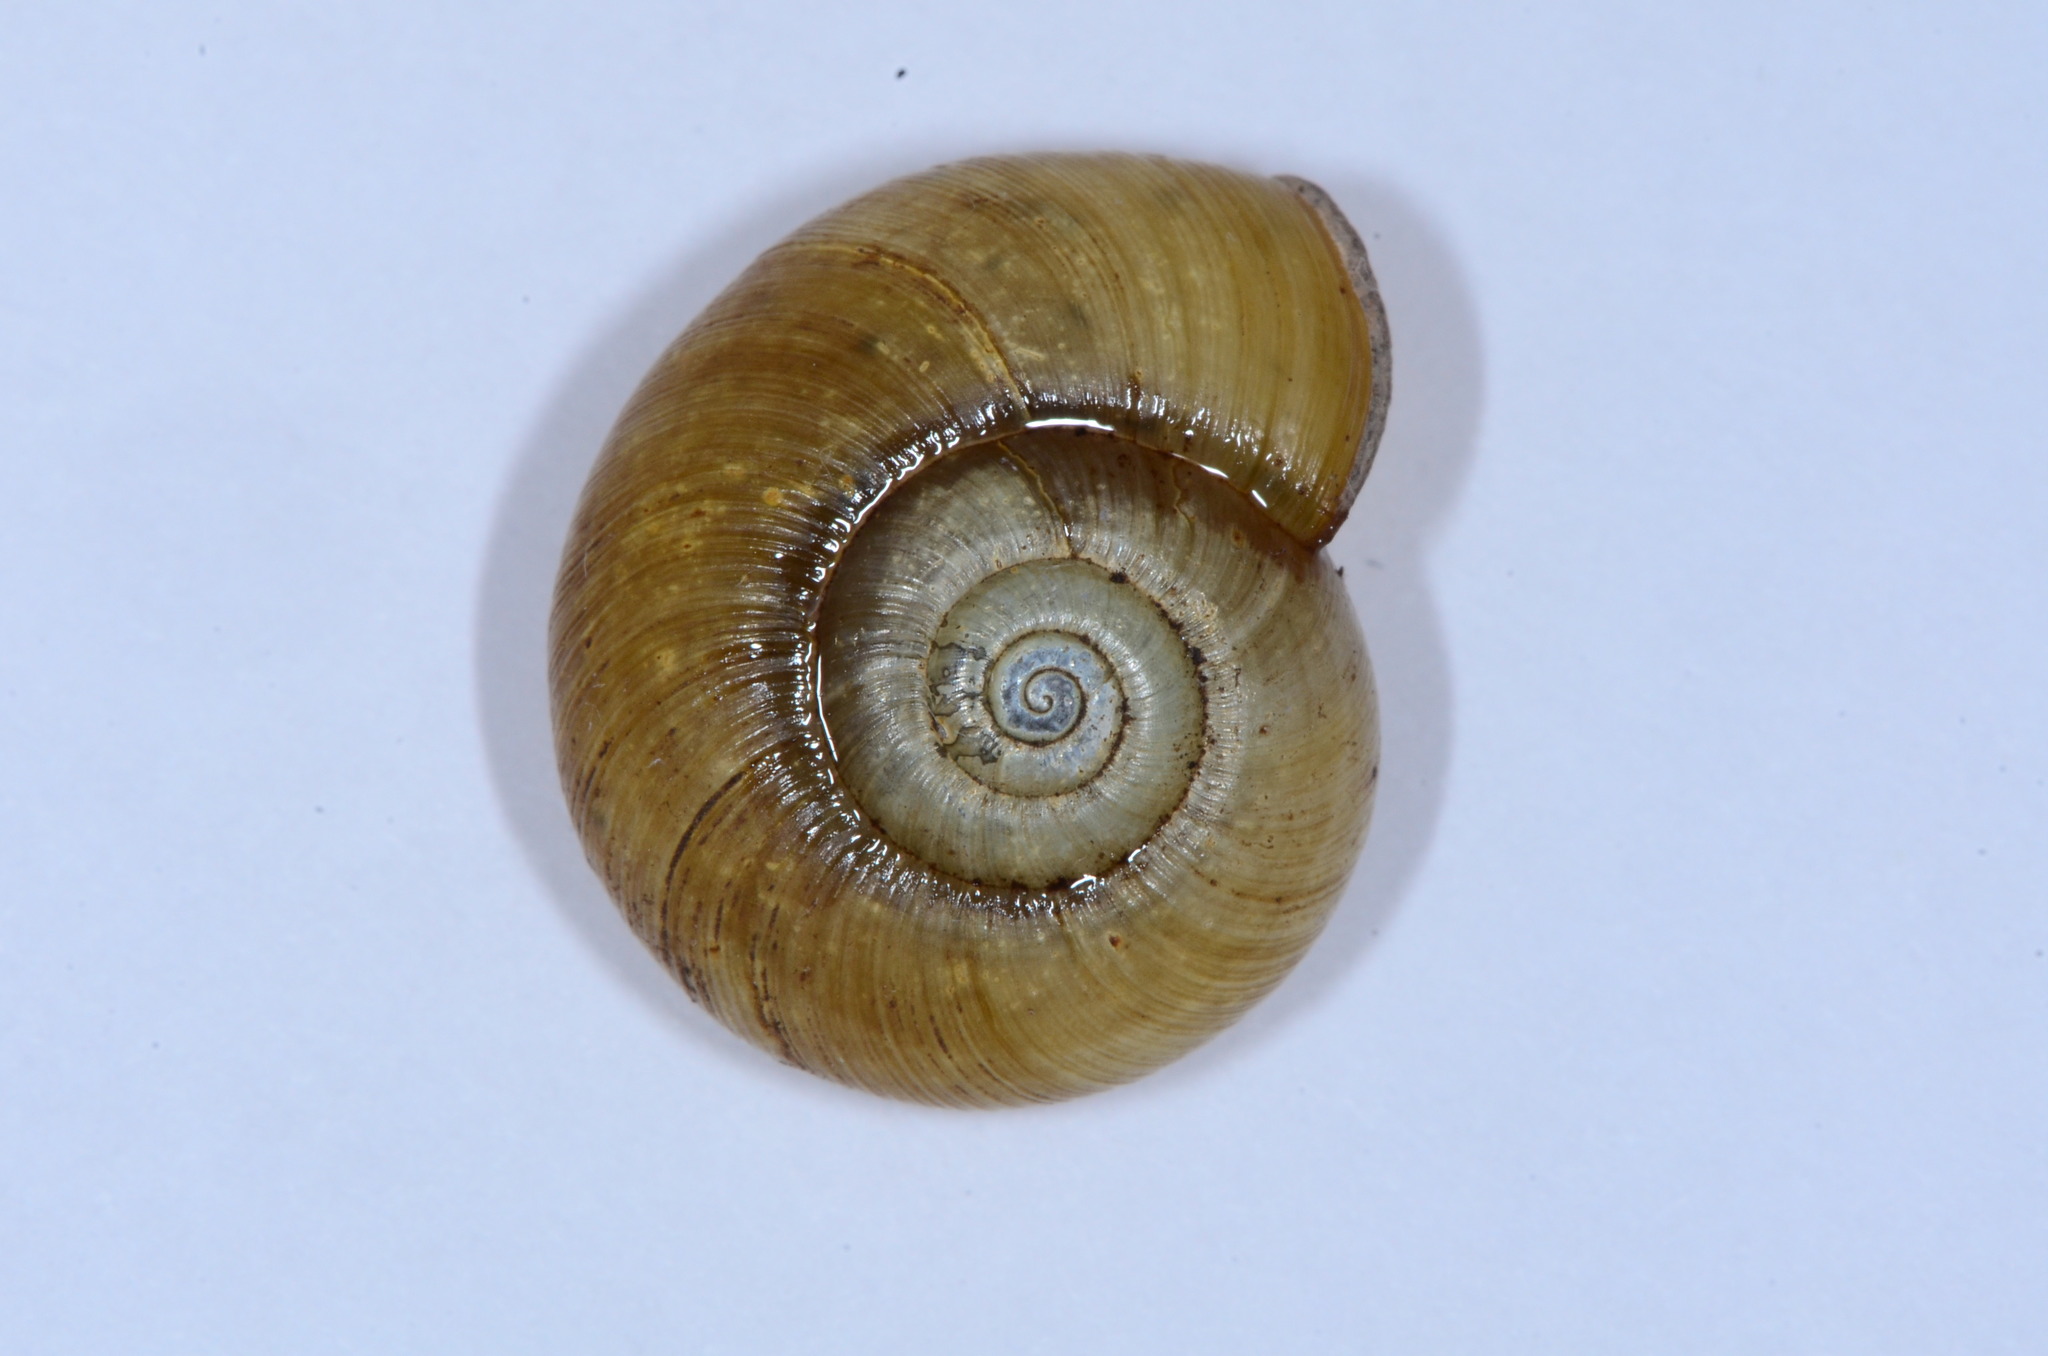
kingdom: Animalia
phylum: Mollusca
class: Gastropoda
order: Stylommatophora
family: Haplotrematidae
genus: Haplotrema
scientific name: Haplotrema minimum
